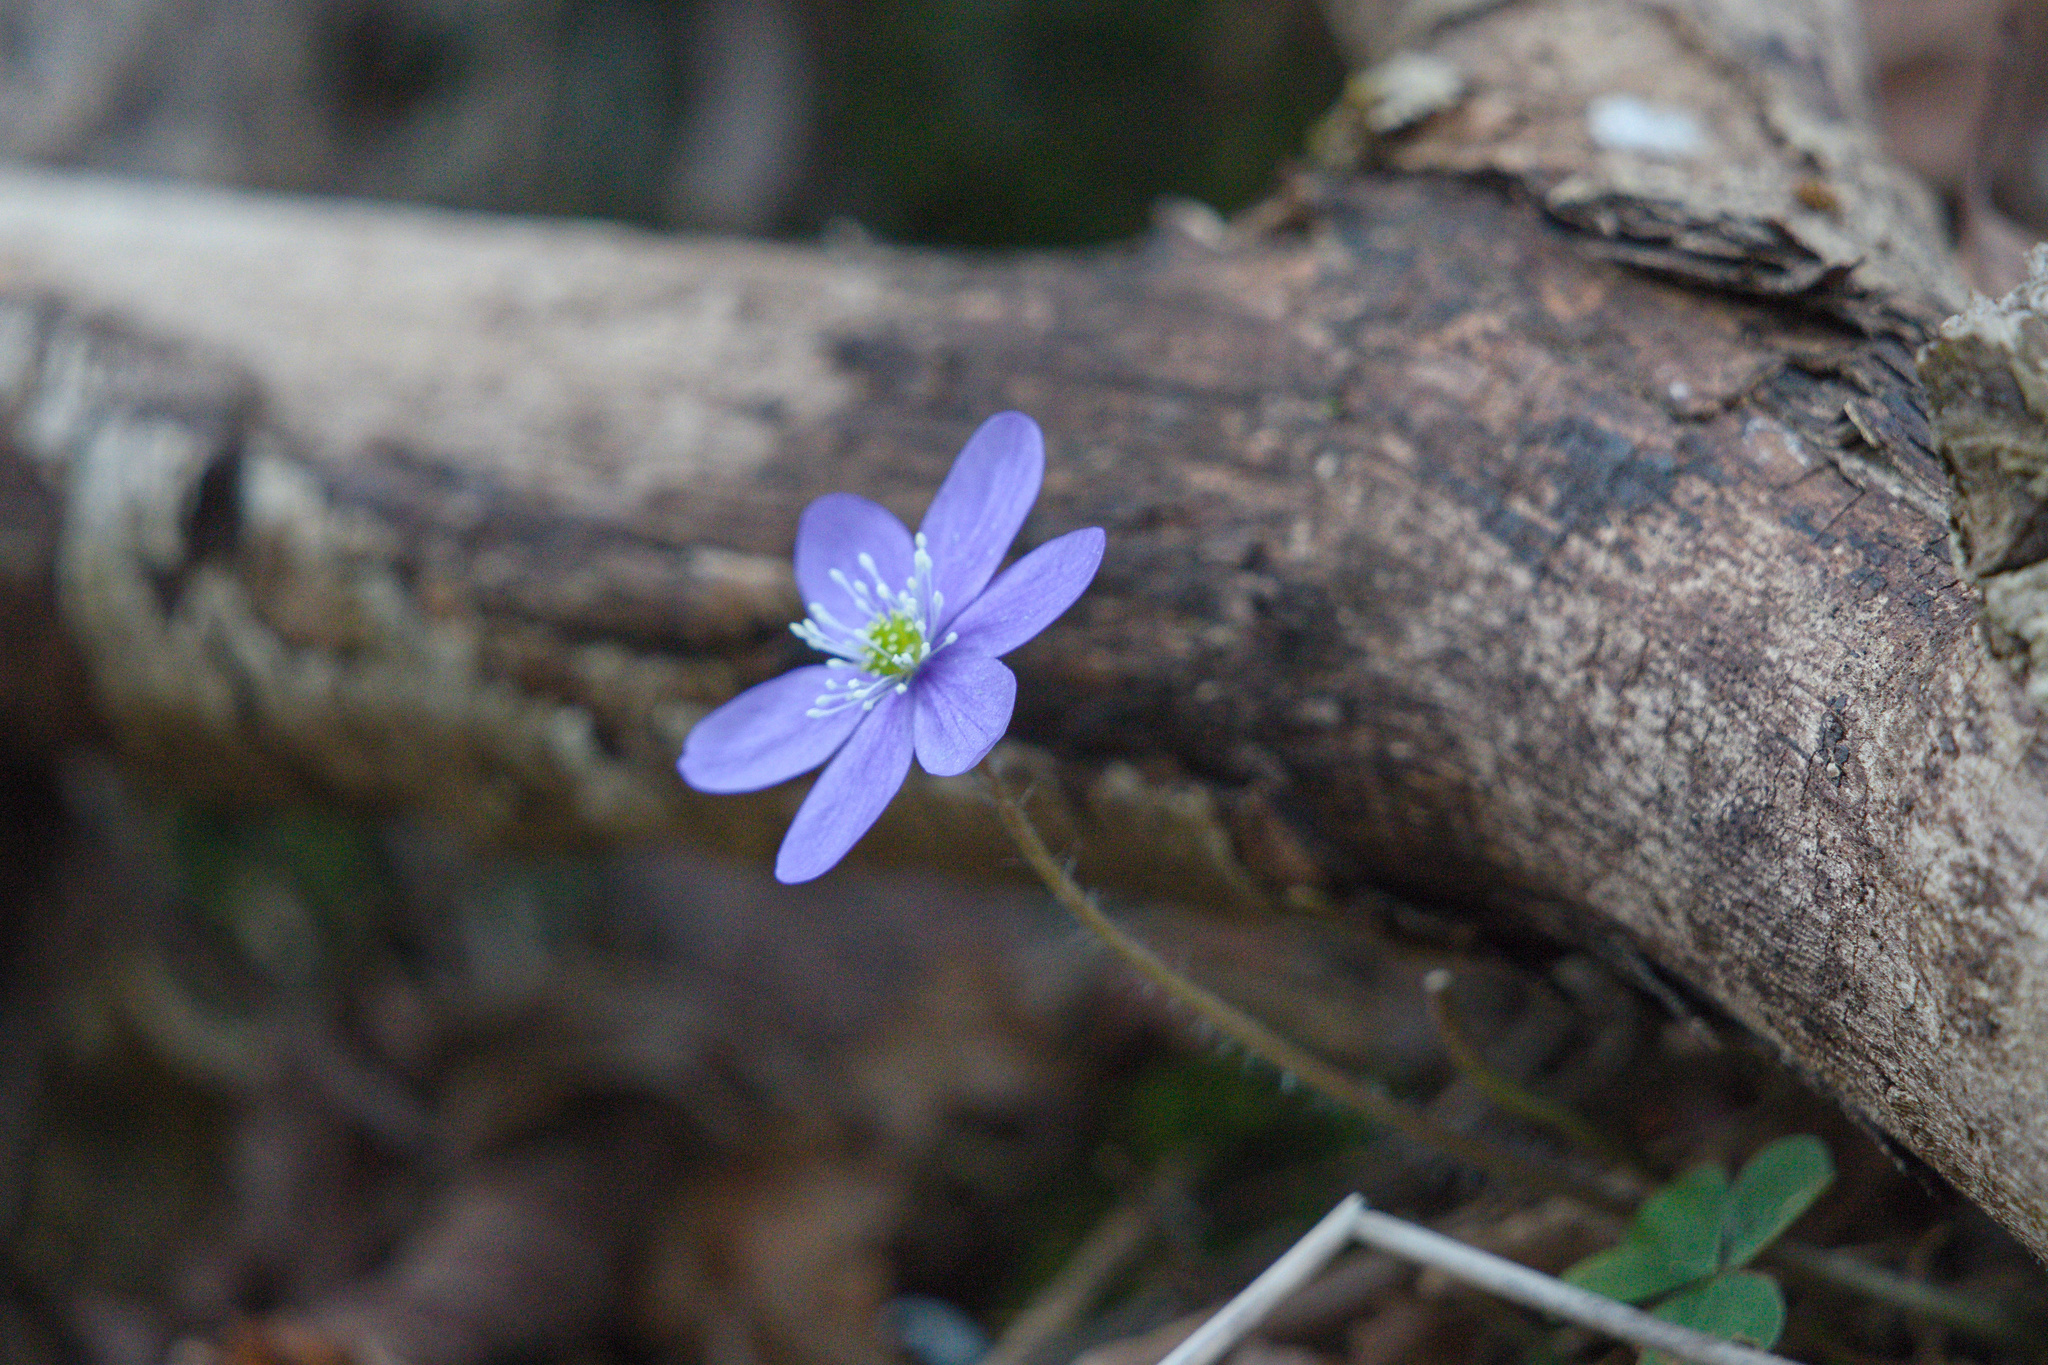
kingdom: Plantae
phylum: Tracheophyta
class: Magnoliopsida
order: Ranunculales
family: Ranunculaceae
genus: Hepatica
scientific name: Hepatica nobilis
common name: Liverleaf
